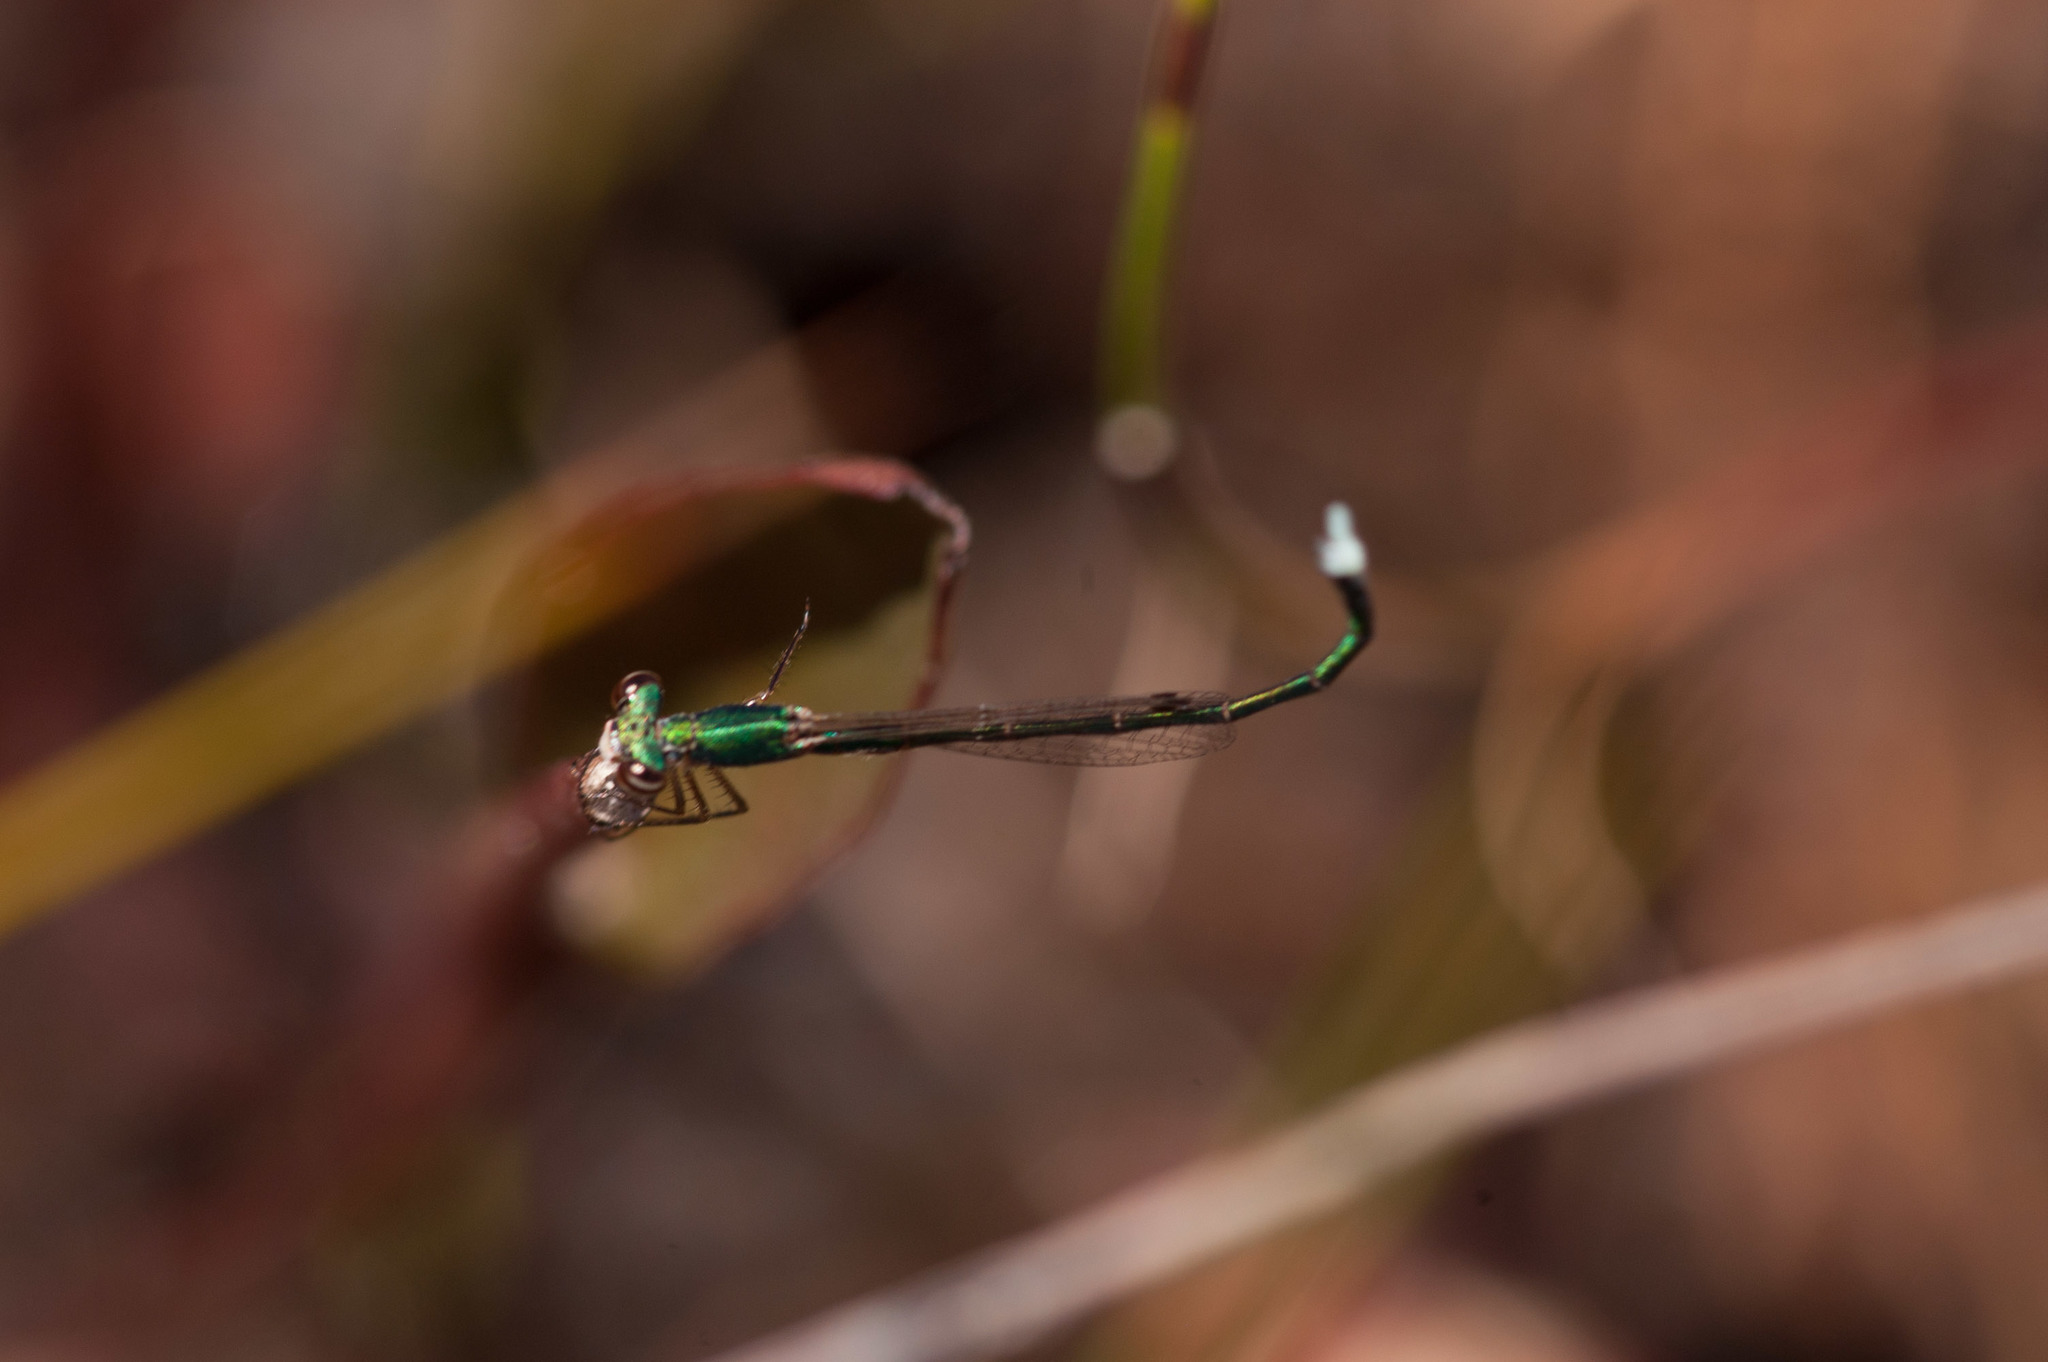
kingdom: Animalia
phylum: Arthropoda
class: Insecta
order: Odonata
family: Hemiphlebiidae
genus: Hemiphlebia
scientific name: Hemiphlebia mirabilis
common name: Ancient greenling
